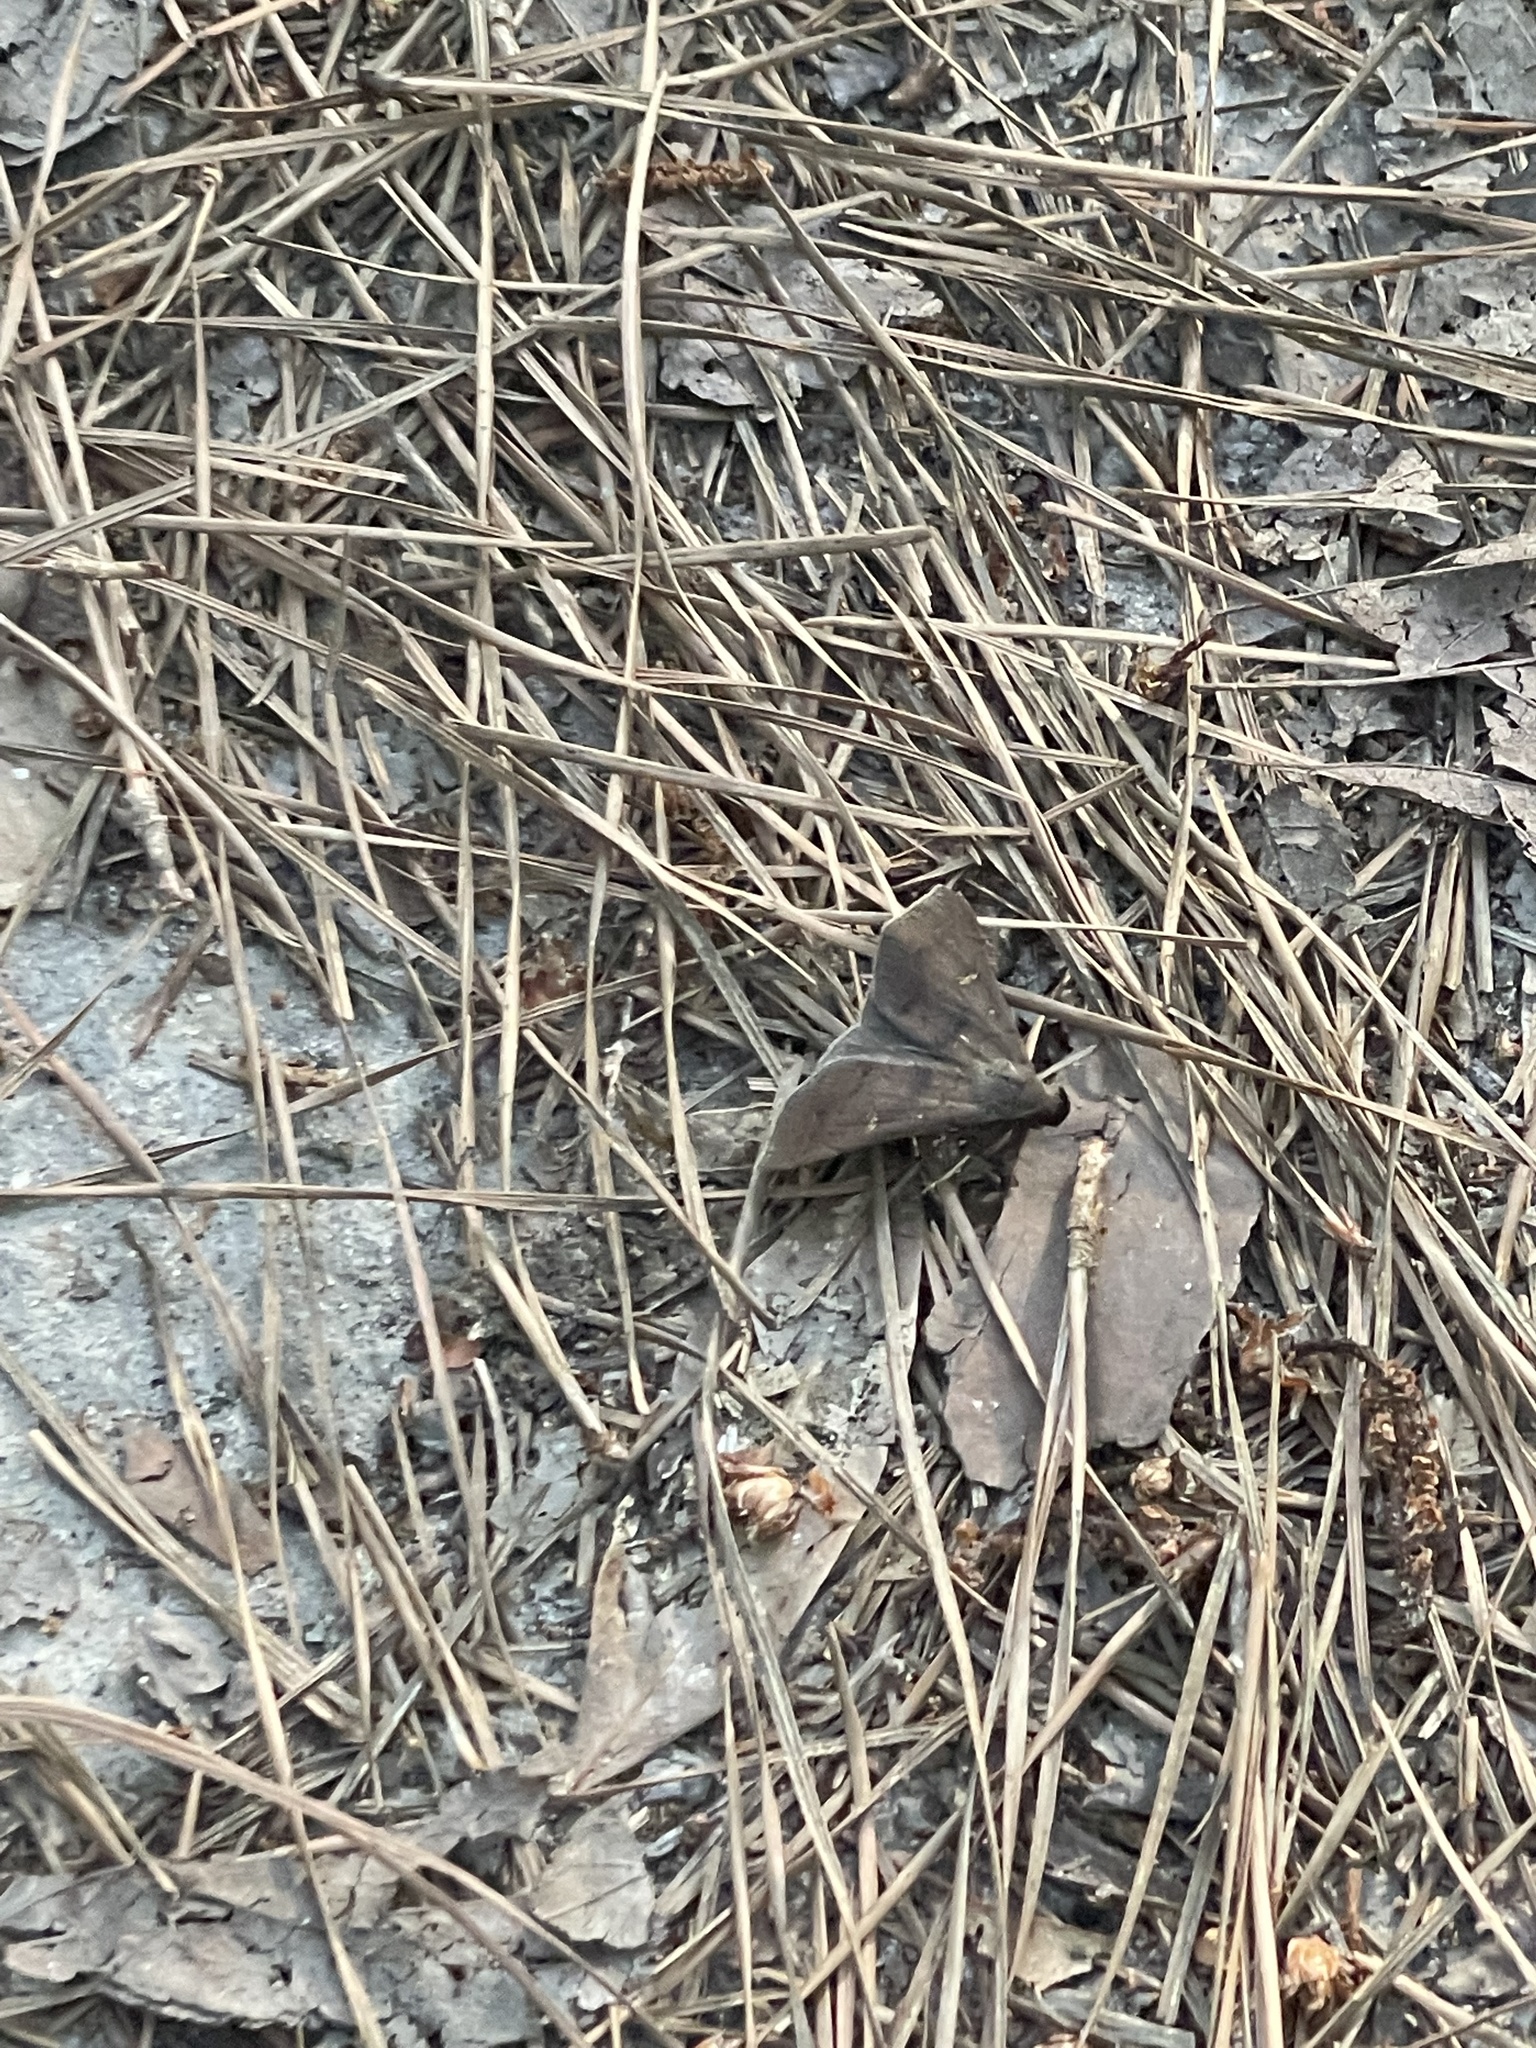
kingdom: Animalia
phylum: Arthropoda
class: Insecta
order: Lepidoptera
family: Erebidae
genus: Bleptina
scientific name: Bleptina caradrinalis
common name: Bent-winged owlet
